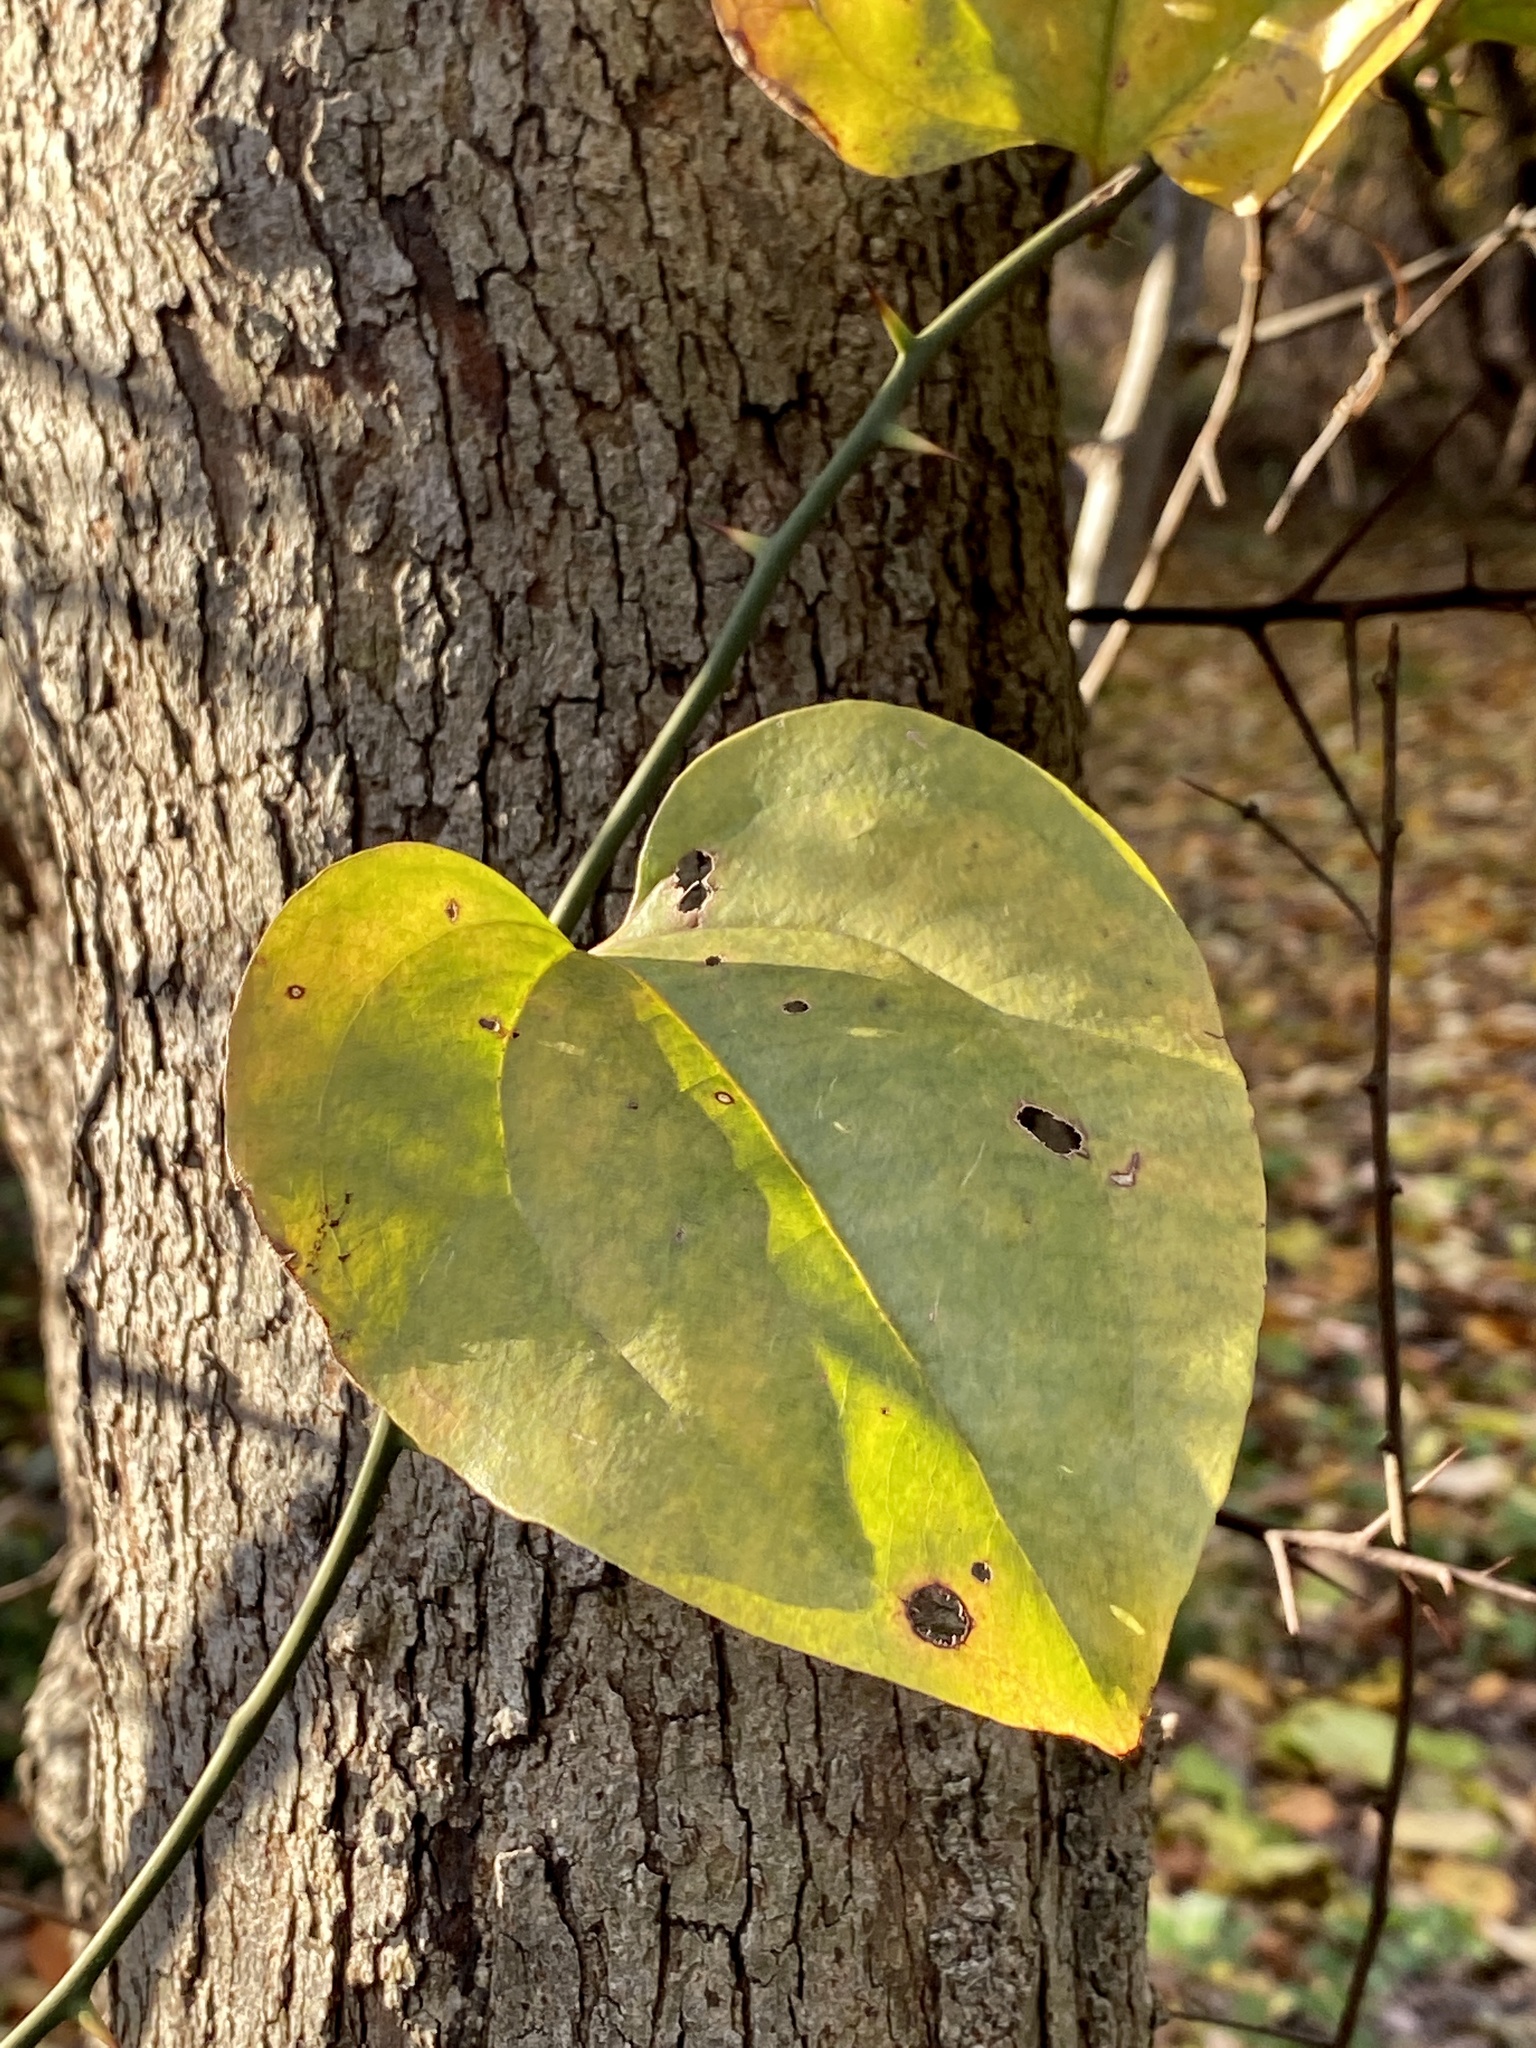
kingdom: Plantae
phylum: Tracheophyta
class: Liliopsida
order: Liliales
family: Smilacaceae
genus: Smilax
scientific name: Smilax rotundifolia
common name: Bullbriar
